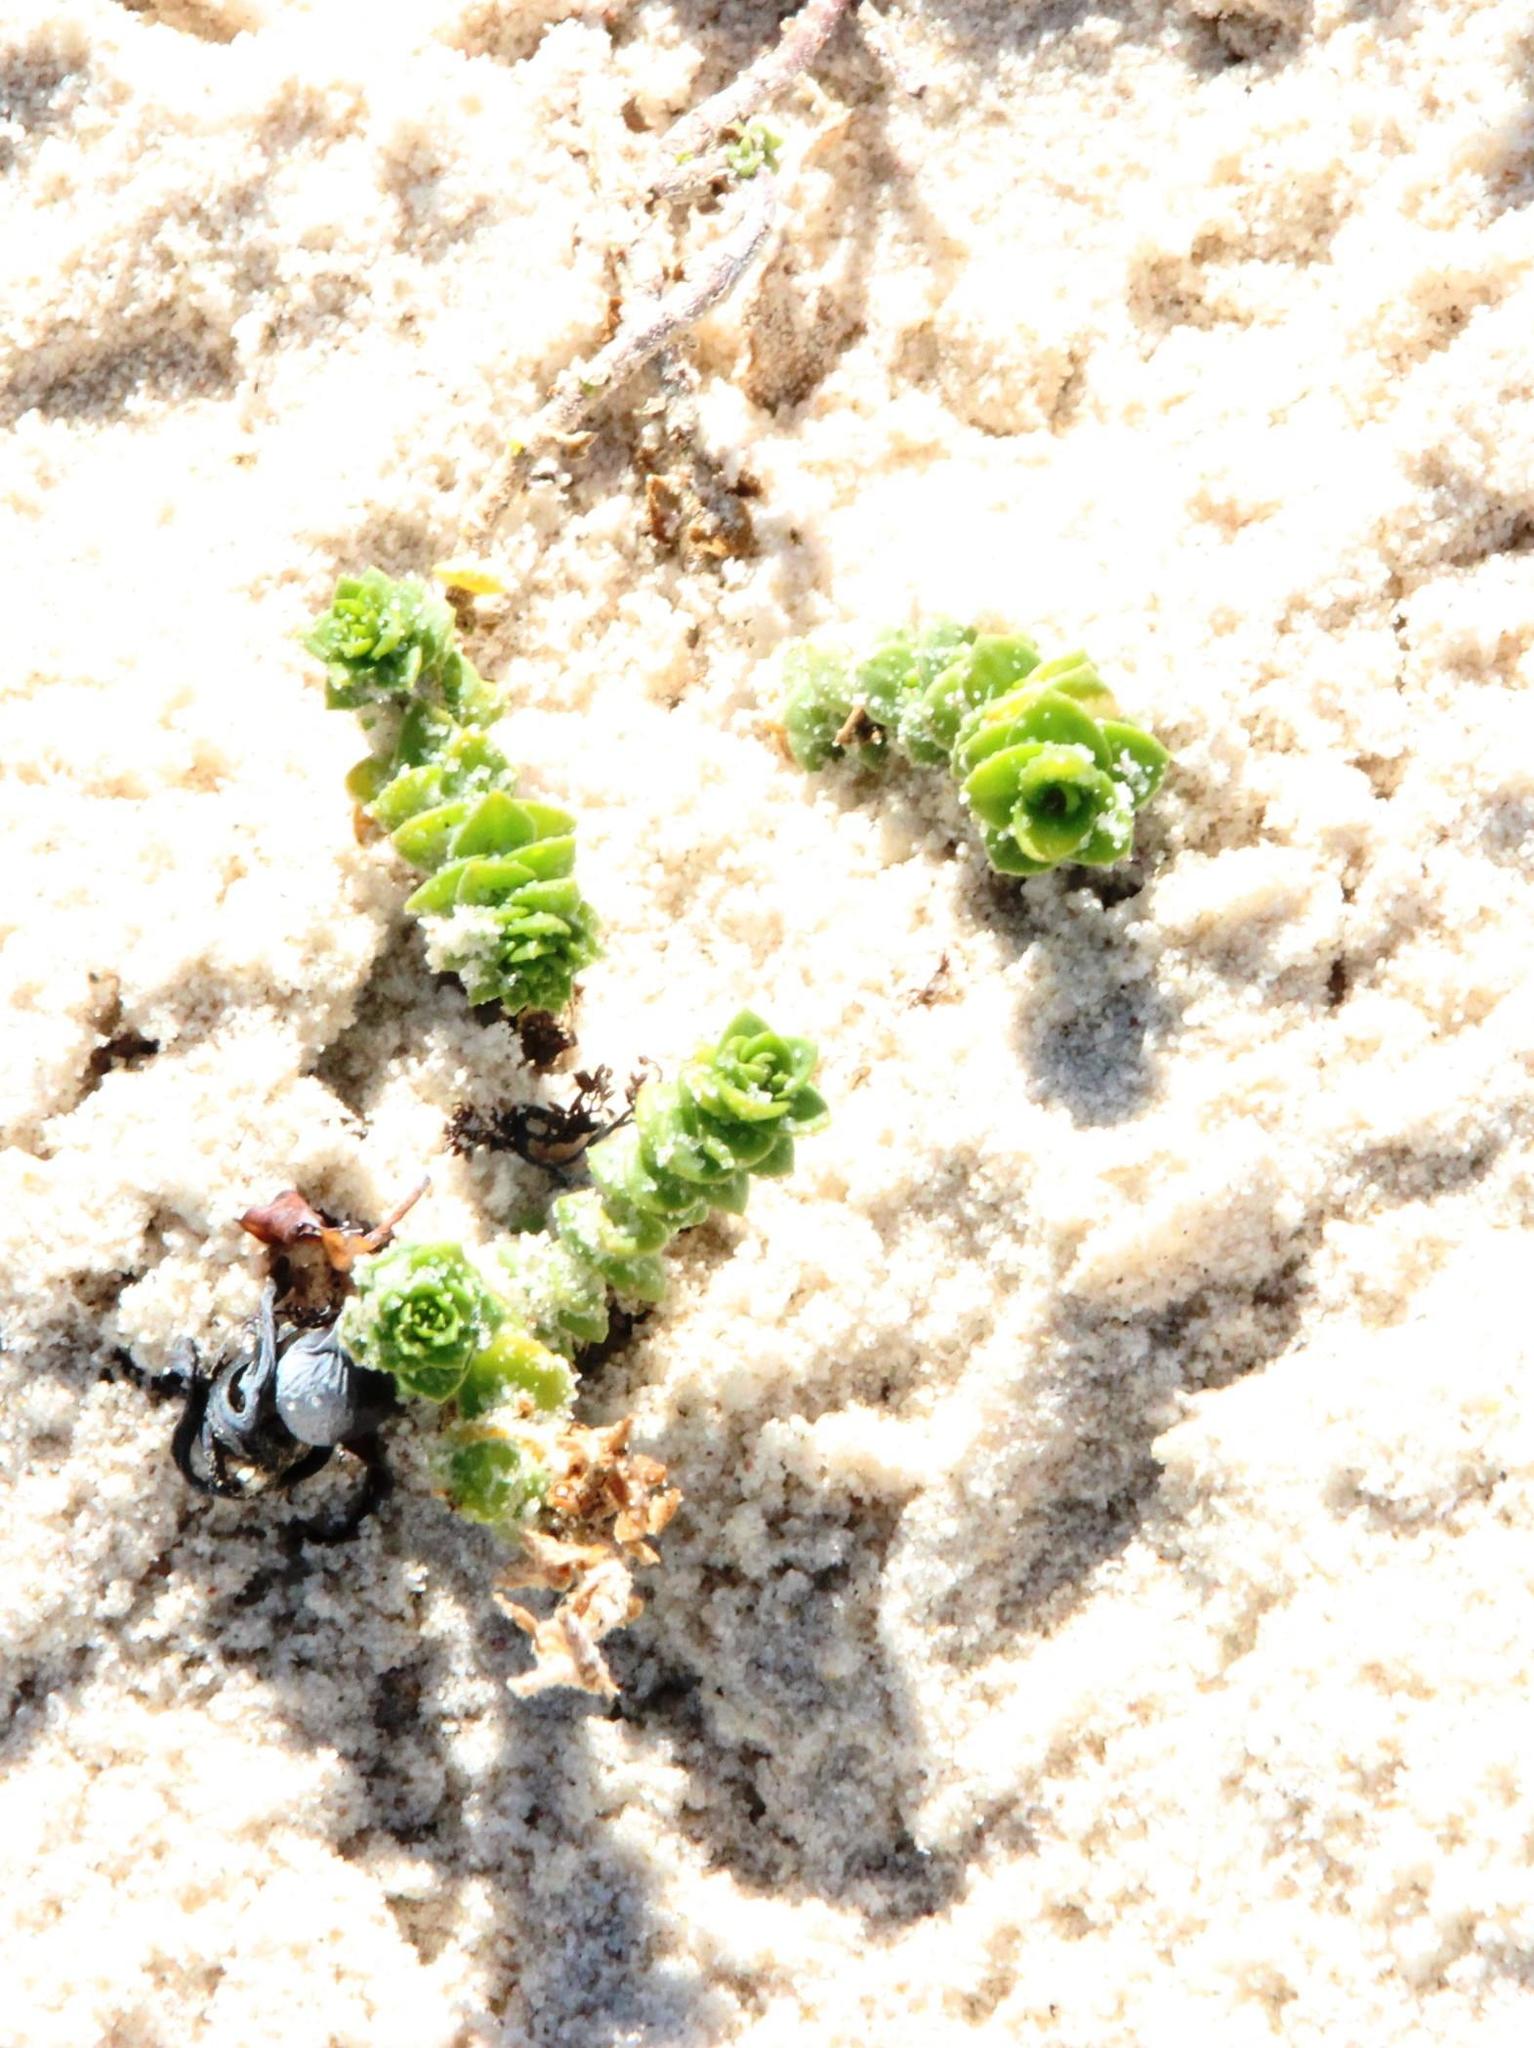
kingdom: Plantae
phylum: Tracheophyta
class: Magnoliopsida
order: Fagales
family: Myricaceae
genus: Morella
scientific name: Morella cordifolia
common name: Waxberry
